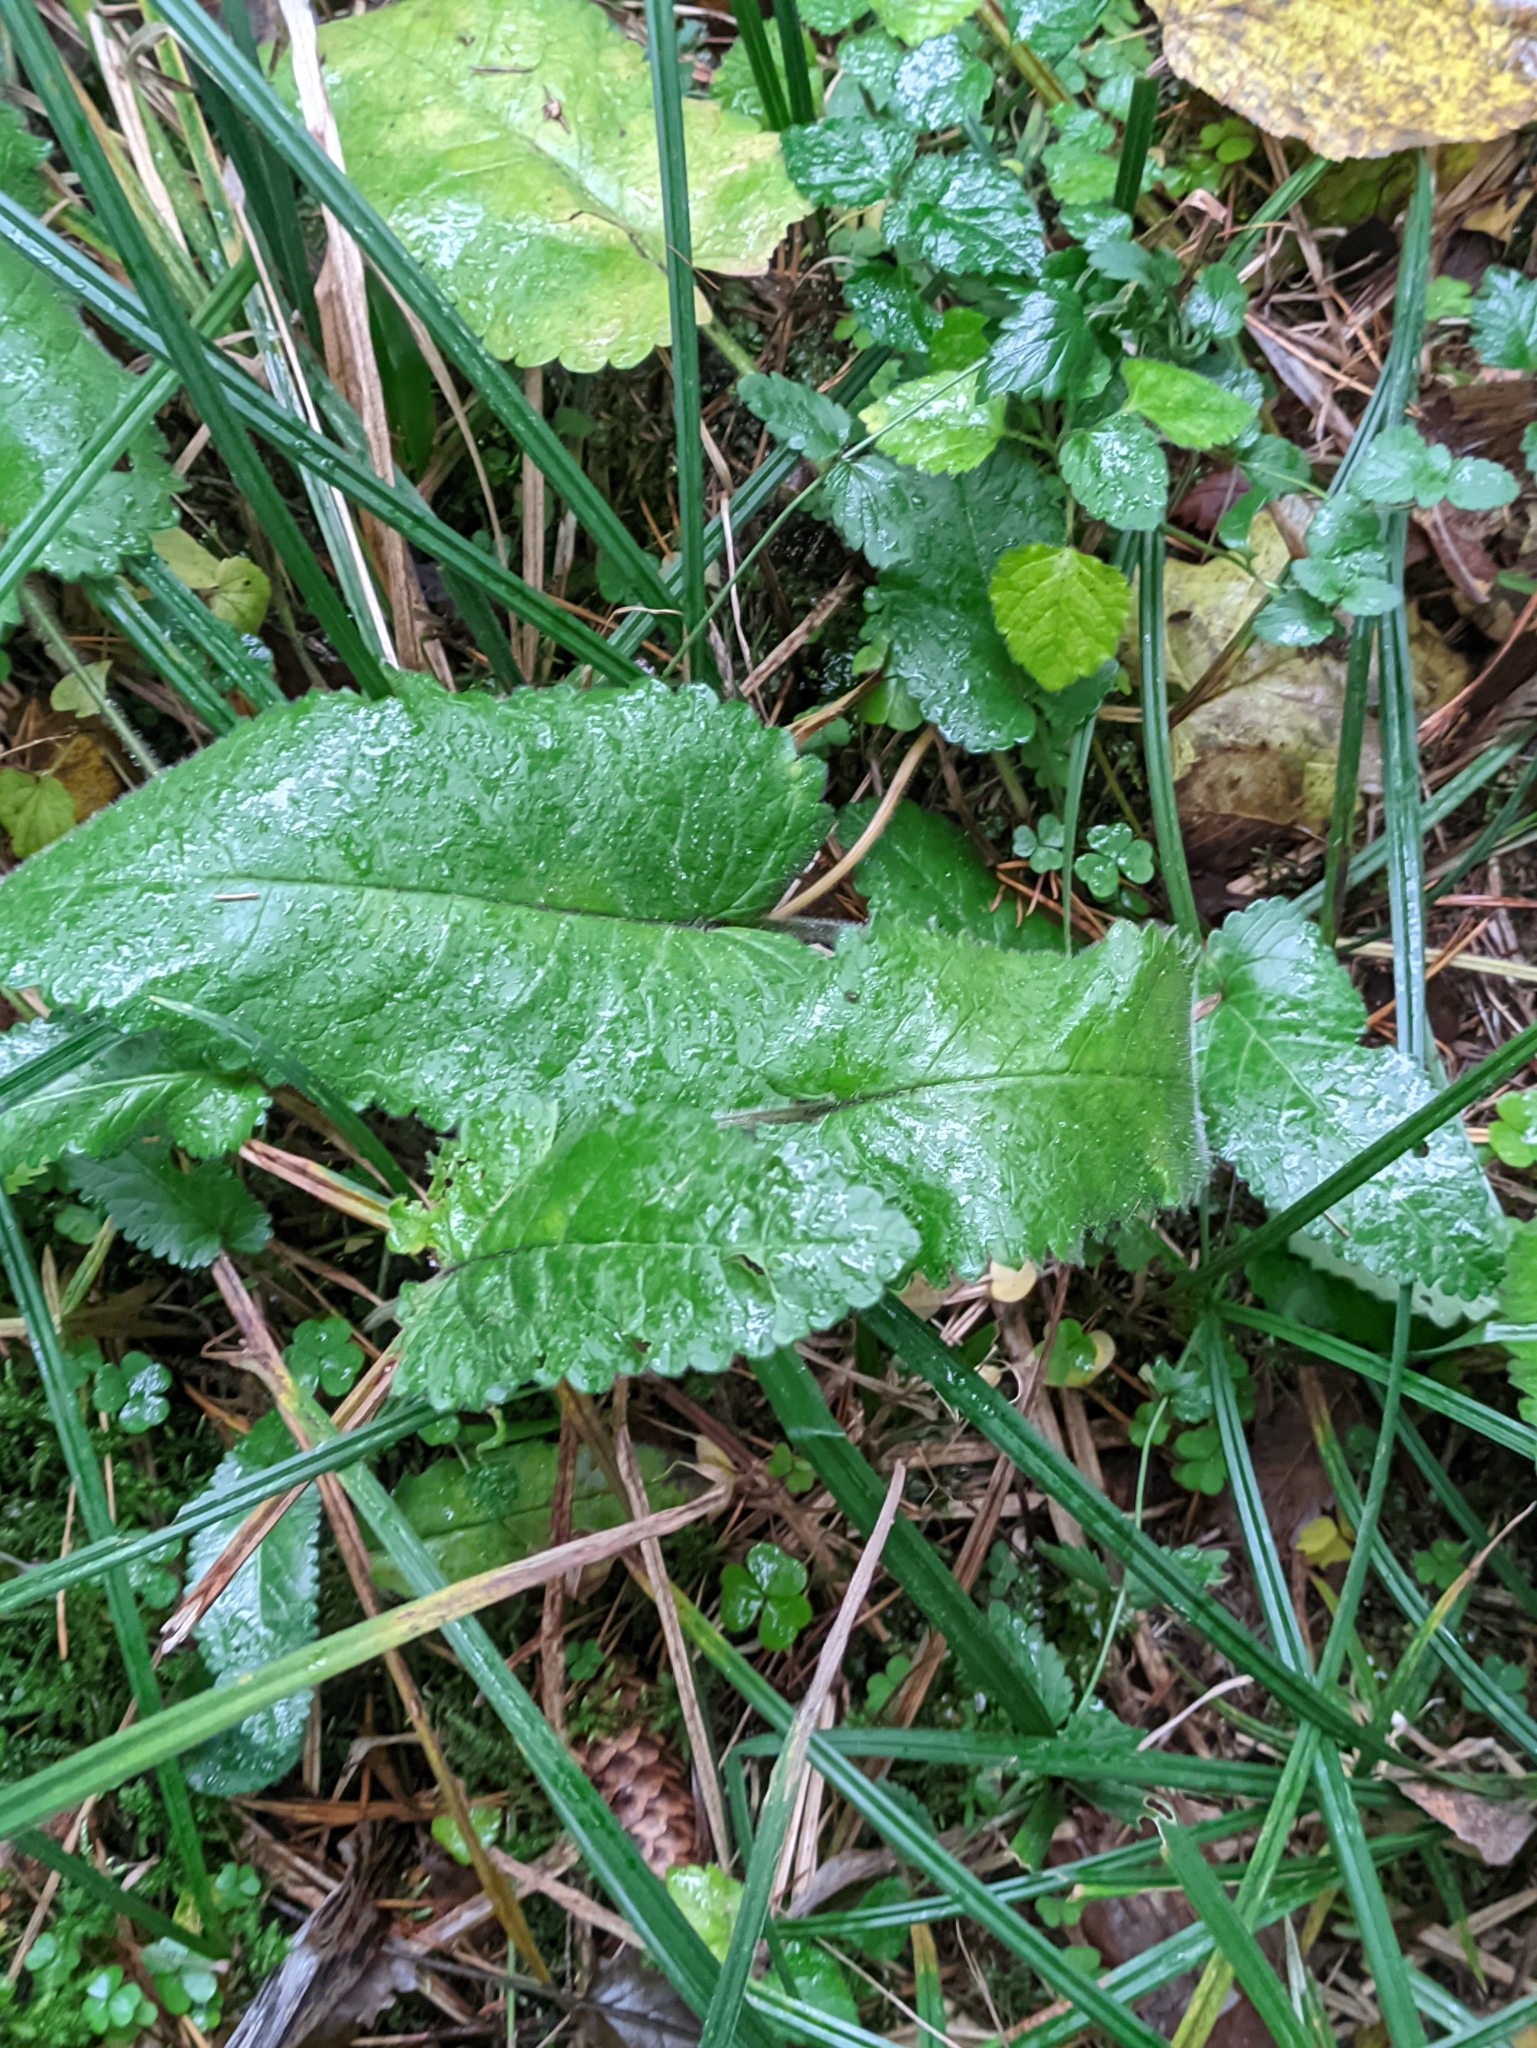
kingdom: Plantae
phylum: Tracheophyta
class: Magnoliopsida
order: Lamiales
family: Lamiaceae
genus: Betonica
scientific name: Betonica officinalis
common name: Bishop's-wort
